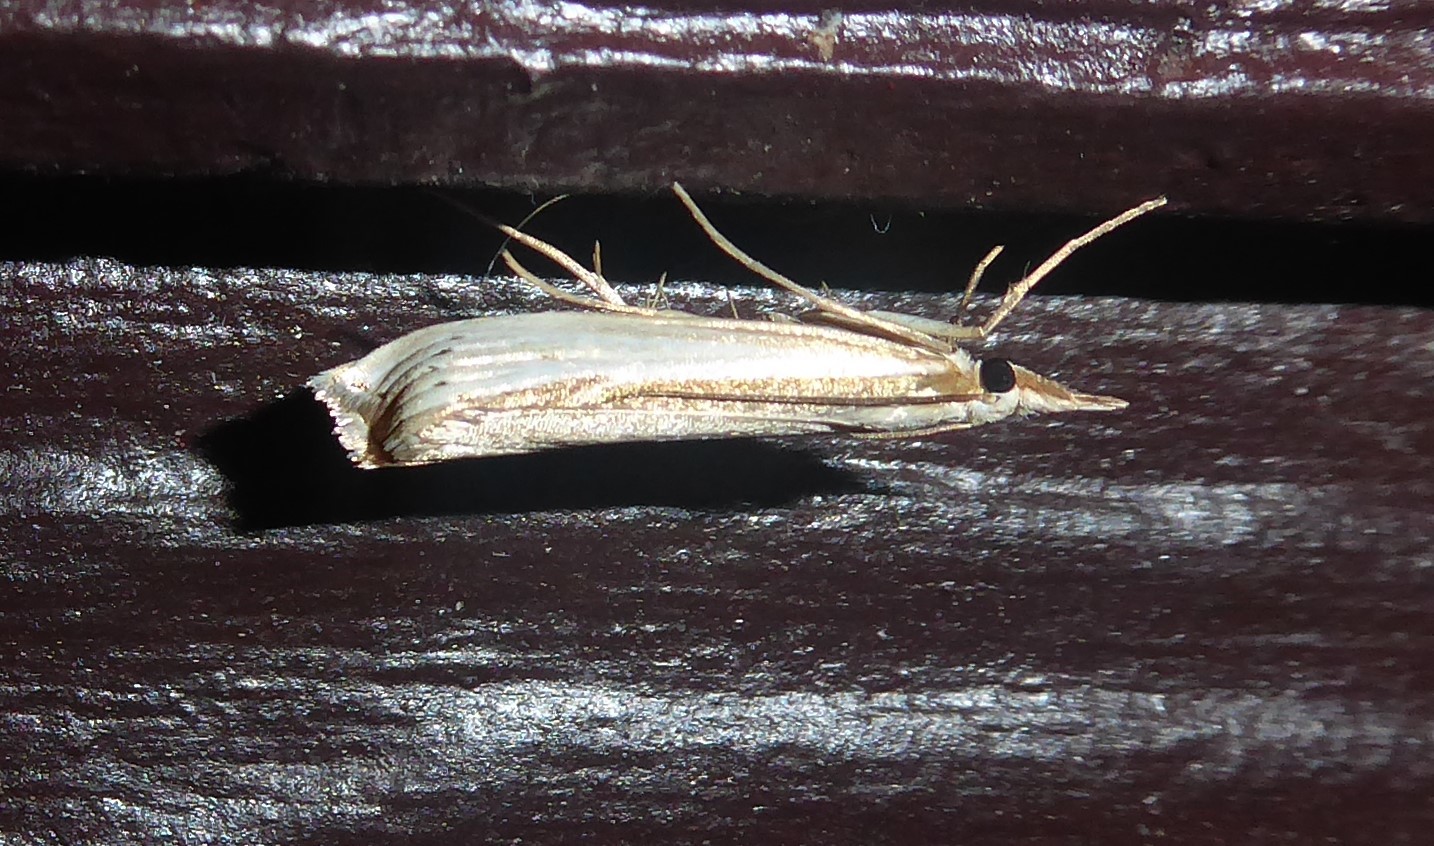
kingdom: Animalia
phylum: Arthropoda
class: Insecta
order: Lepidoptera
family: Crambidae
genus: Orocrambus
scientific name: Orocrambus ramosellus
